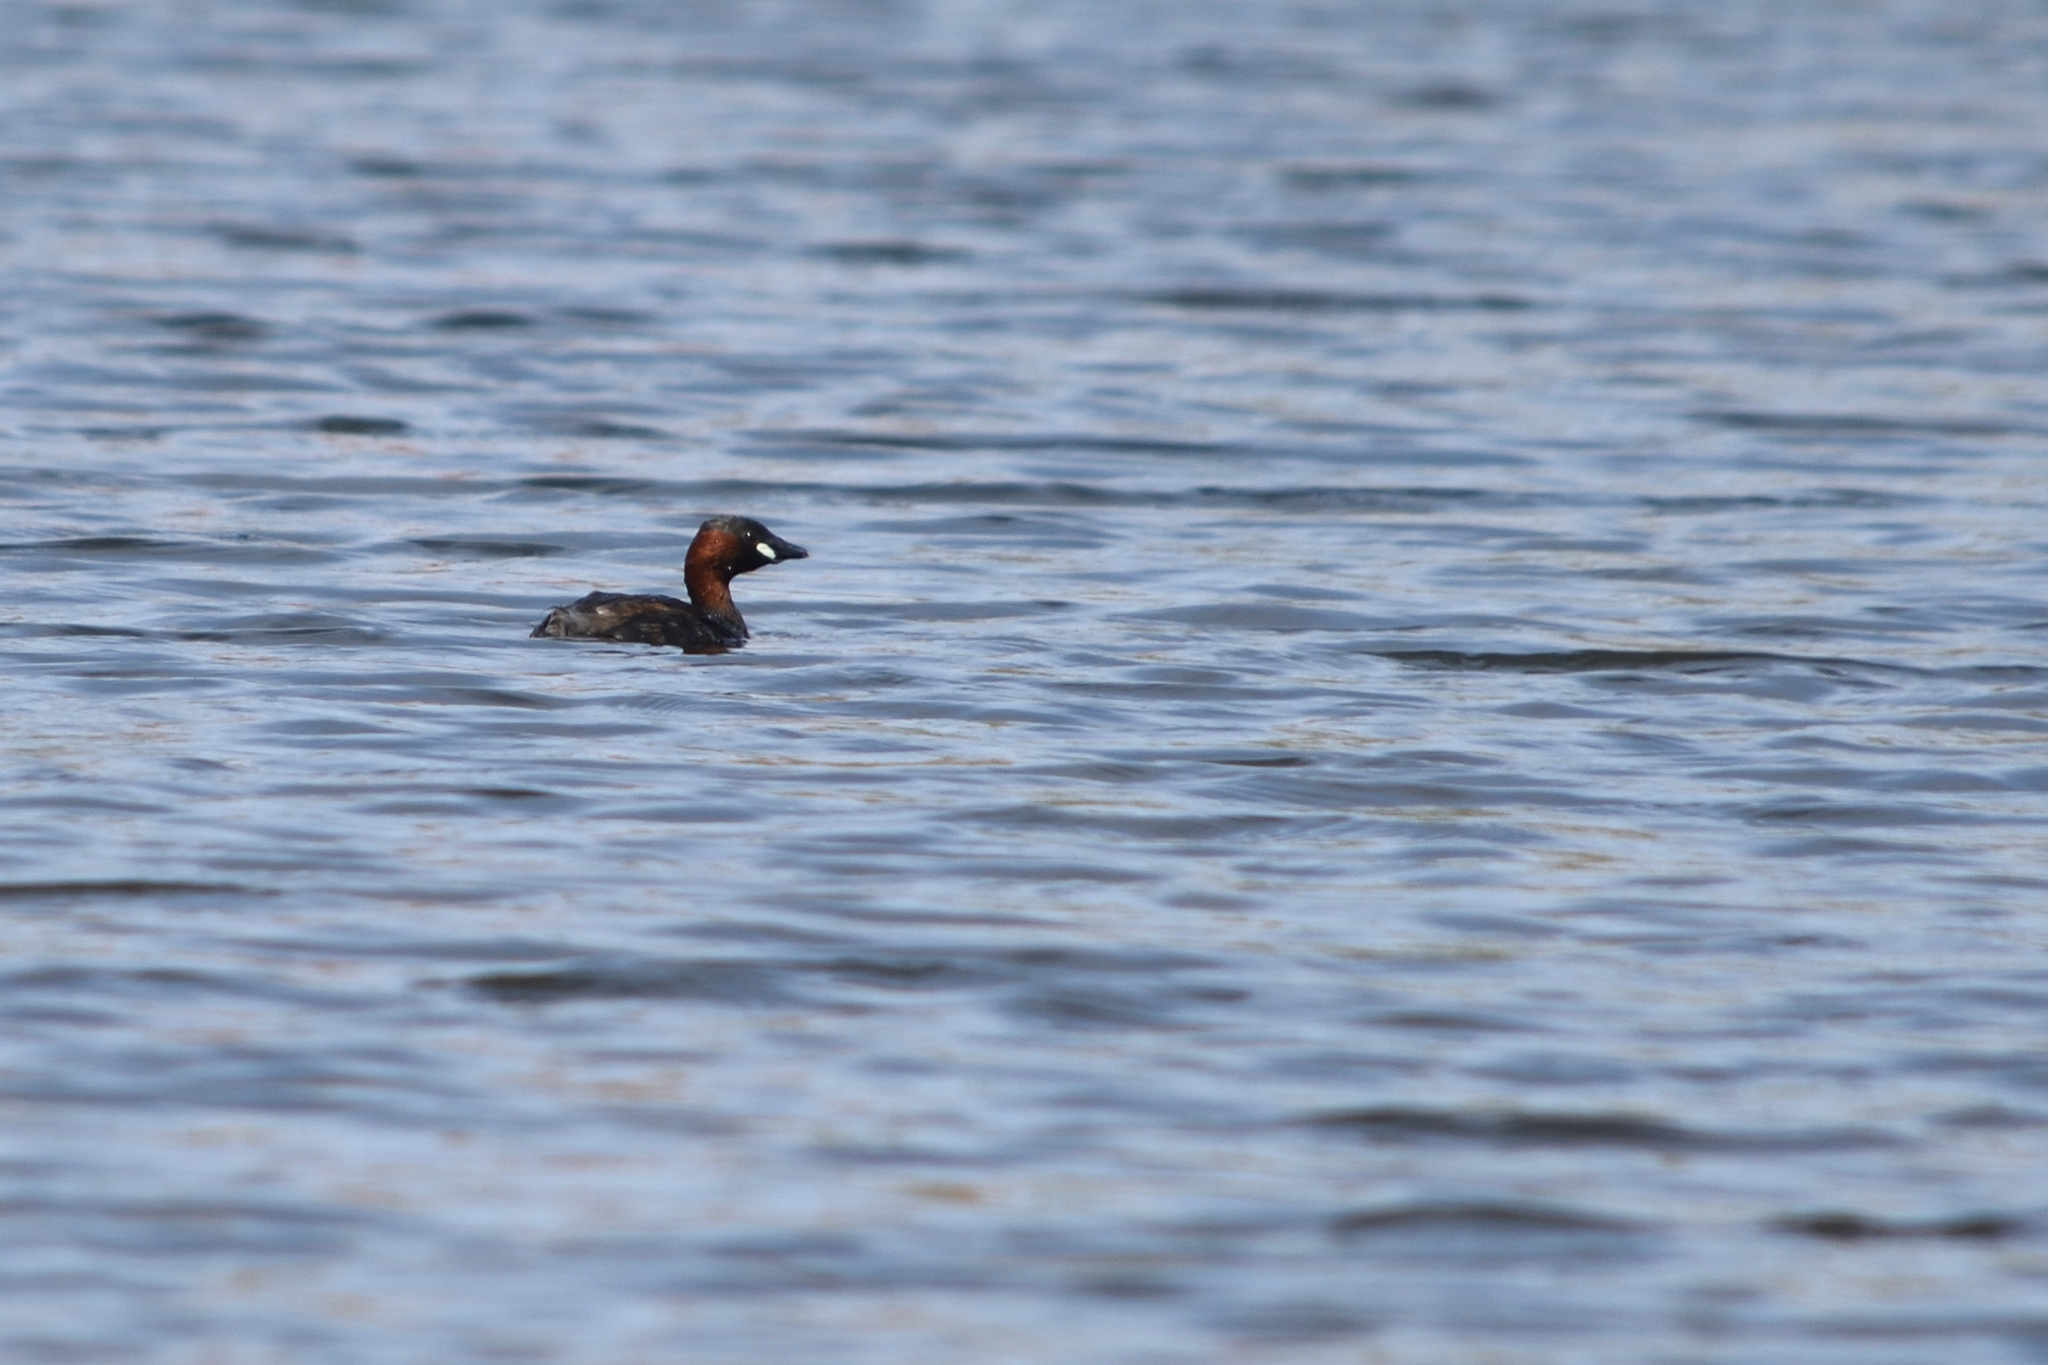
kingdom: Animalia
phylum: Chordata
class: Aves
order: Podicipediformes
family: Podicipedidae
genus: Tachybaptus
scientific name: Tachybaptus ruficollis
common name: Little grebe
